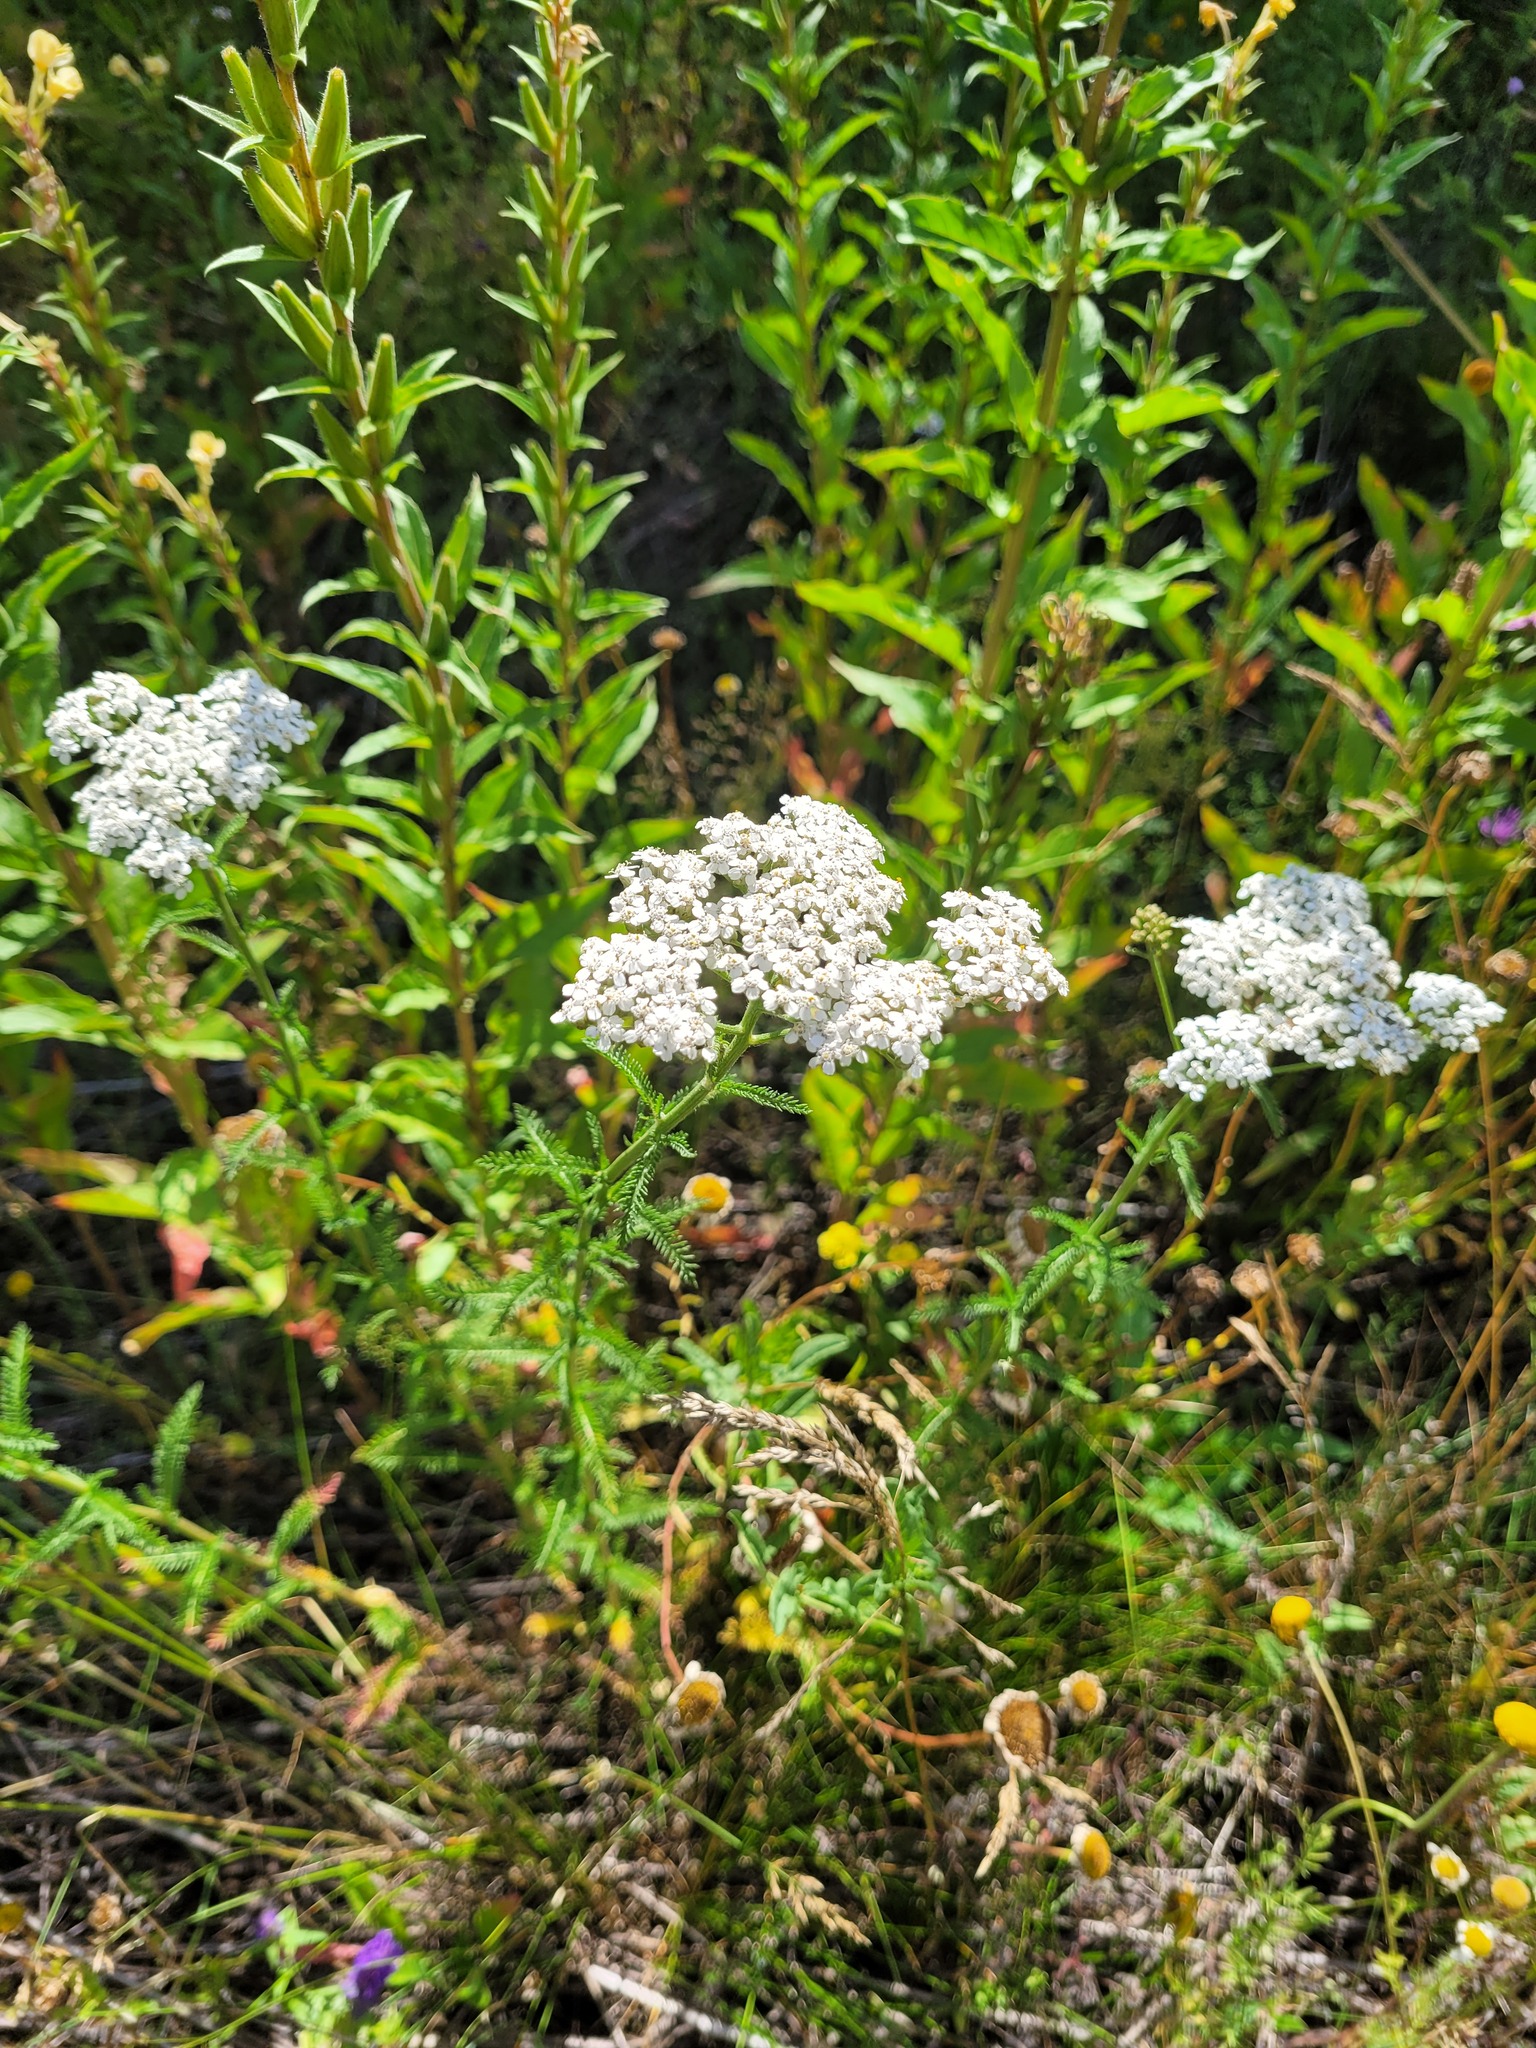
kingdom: Plantae
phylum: Tracheophyta
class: Magnoliopsida
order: Asterales
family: Asteraceae
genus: Achillea
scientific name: Achillea millefolium
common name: Yarrow
